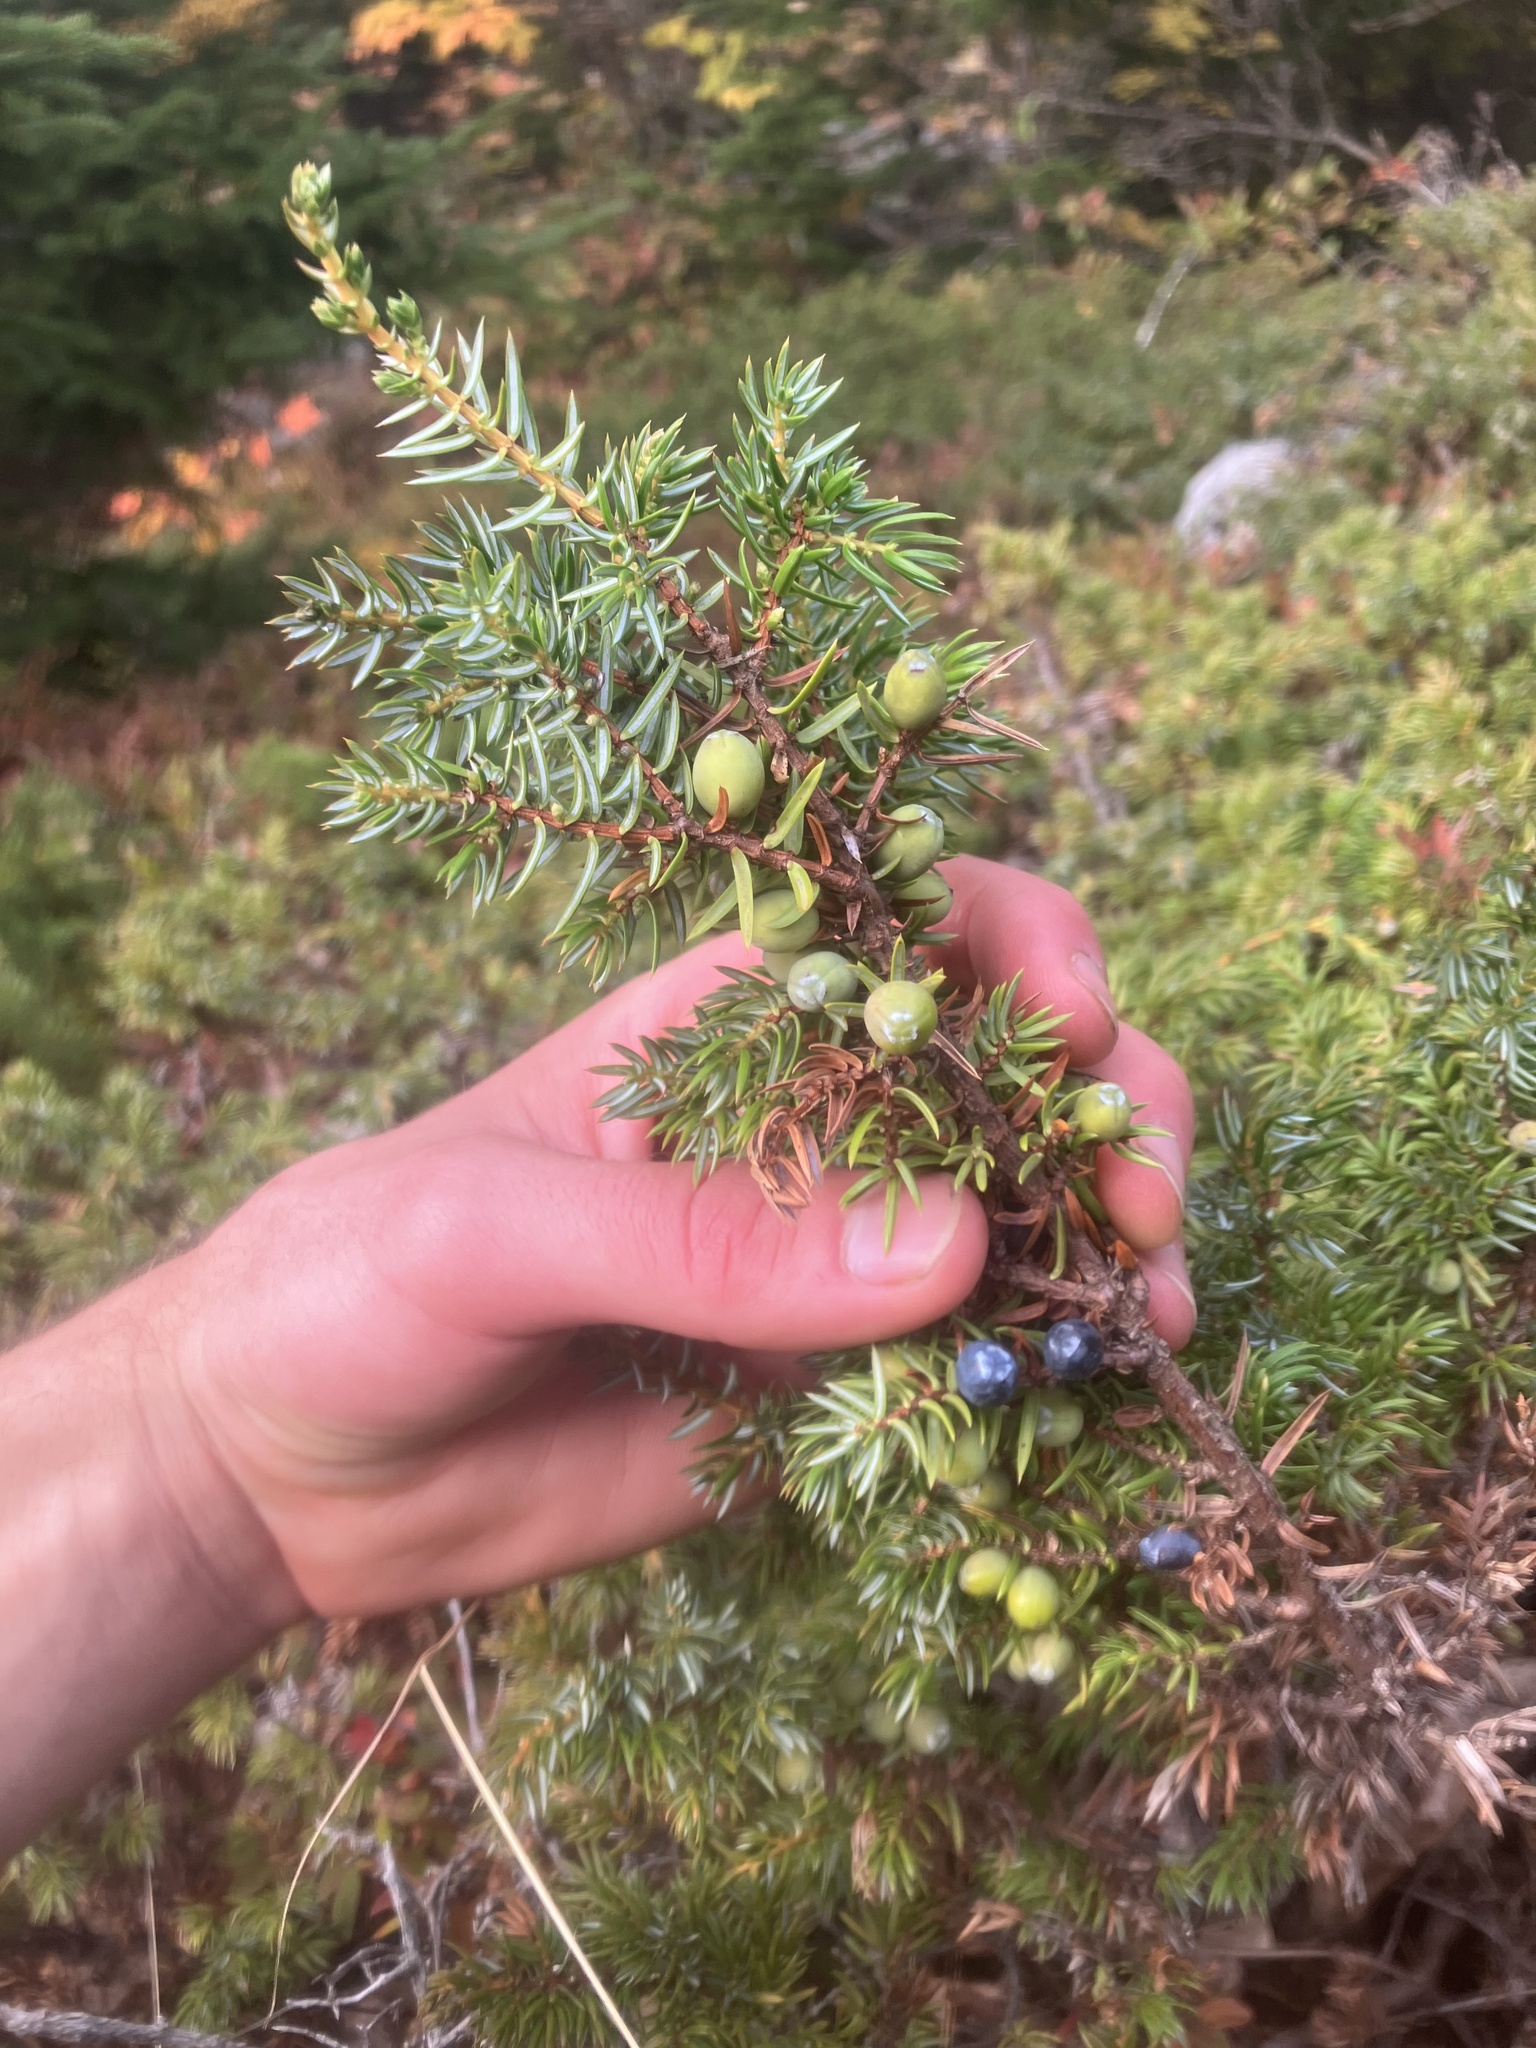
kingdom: Plantae
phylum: Tracheophyta
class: Pinopsida
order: Pinales
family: Cupressaceae
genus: Juniperus
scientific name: Juniperus communis
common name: Common juniper
